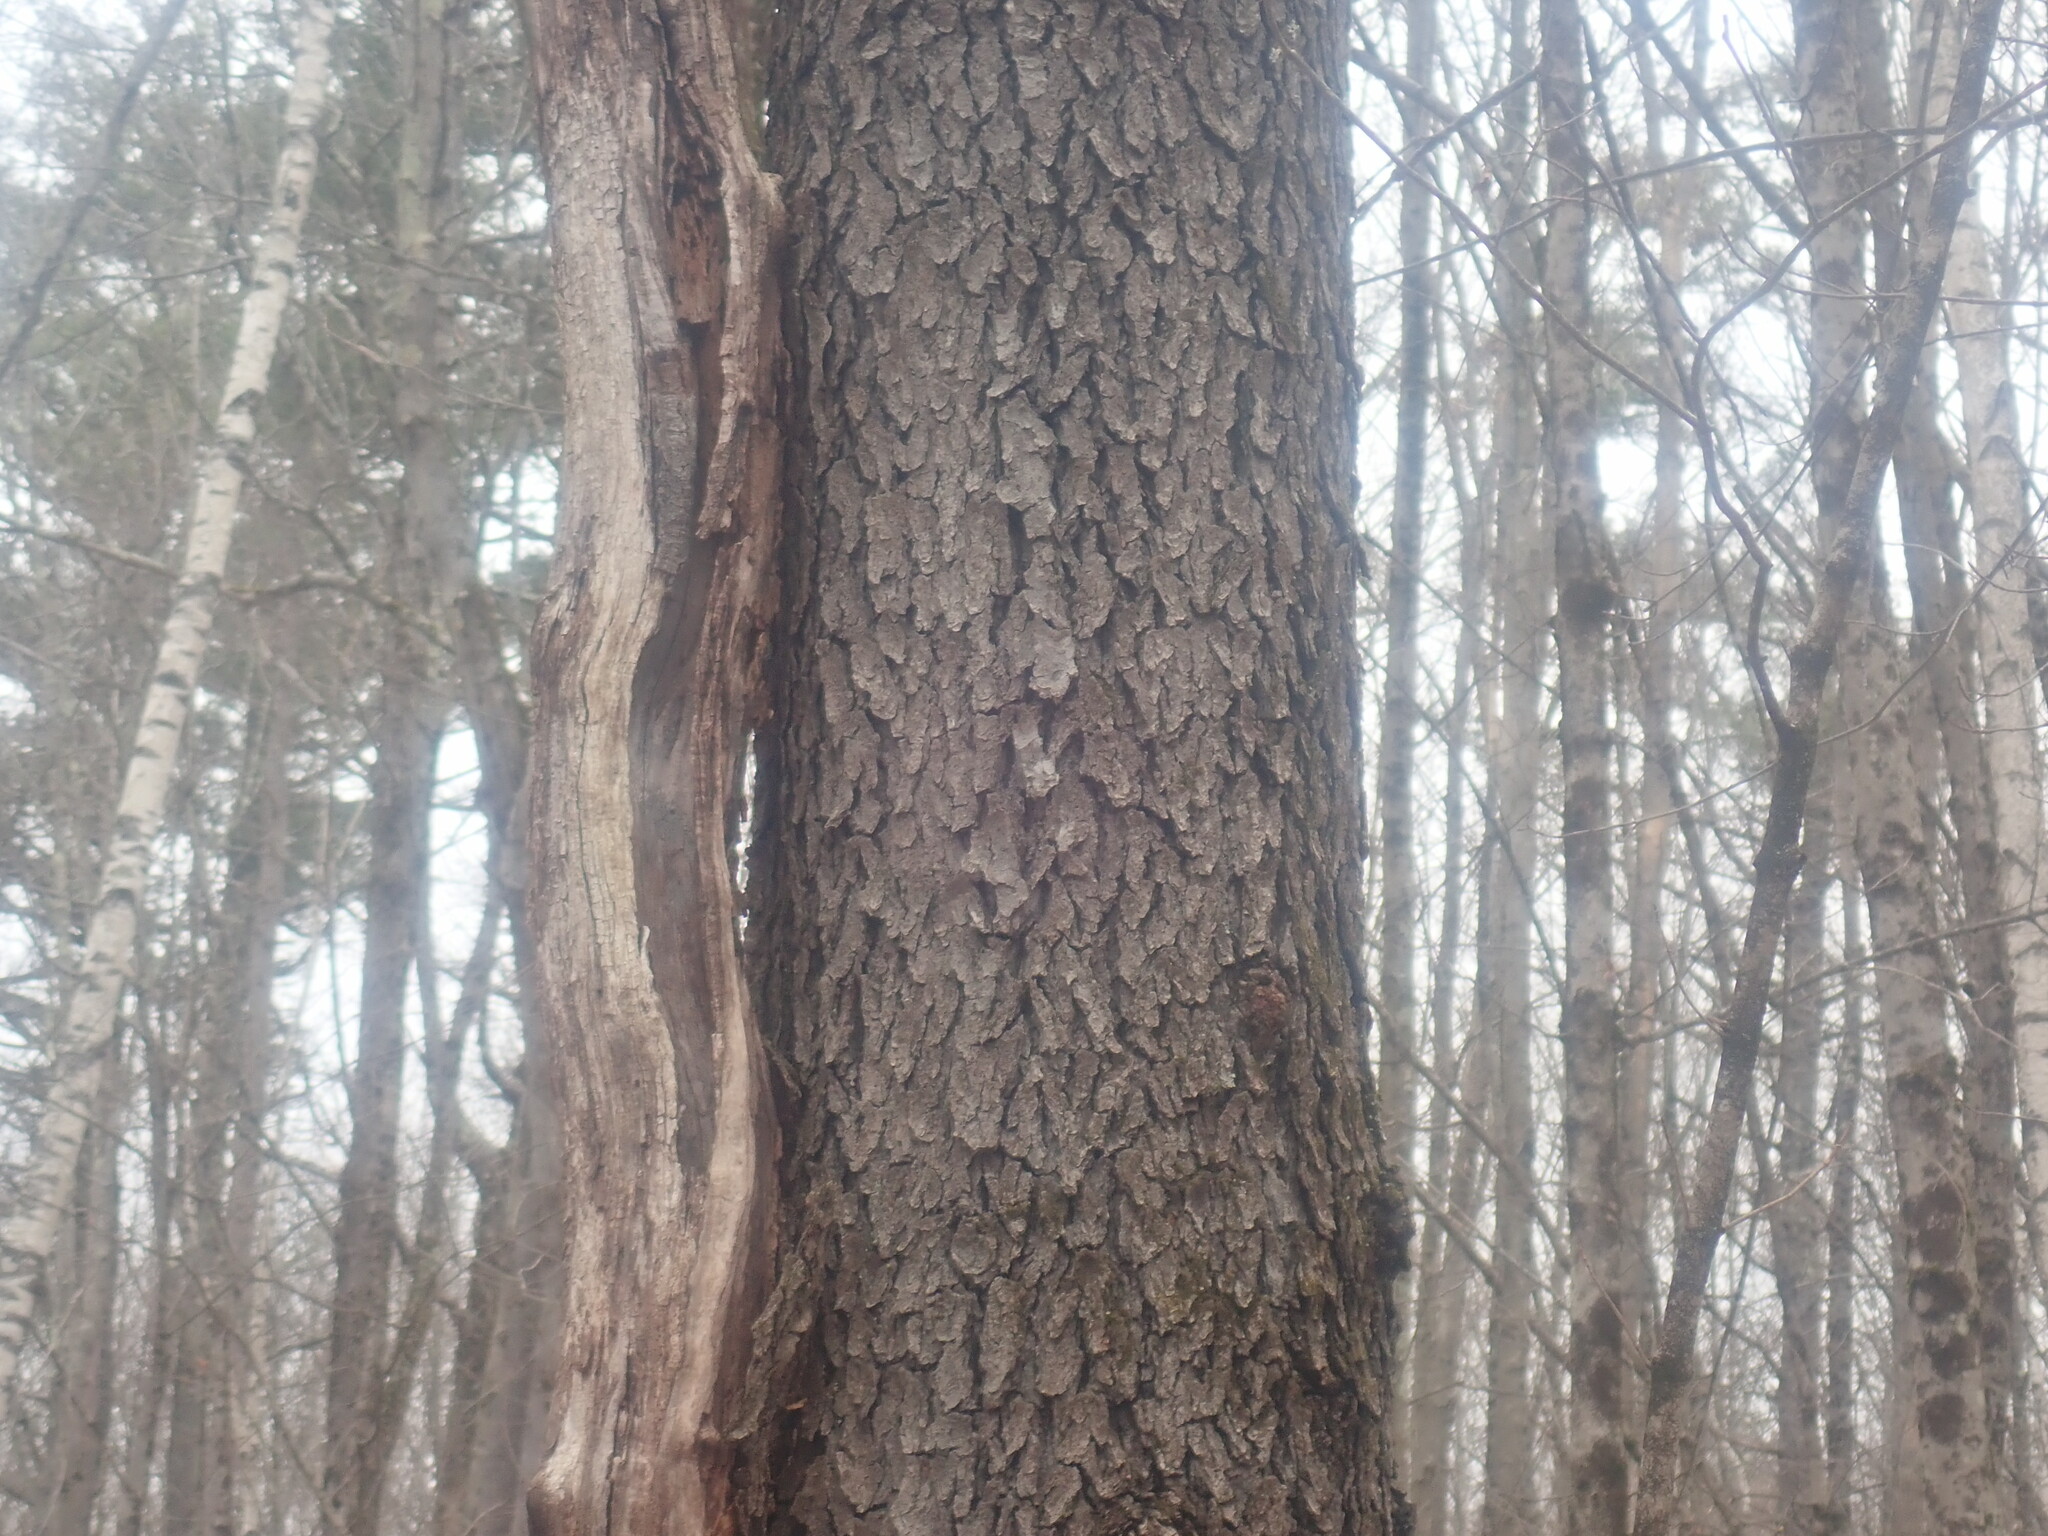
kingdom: Plantae
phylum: Tracheophyta
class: Magnoliopsida
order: Rosales
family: Rosaceae
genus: Prunus
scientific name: Prunus serotina
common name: Black cherry
